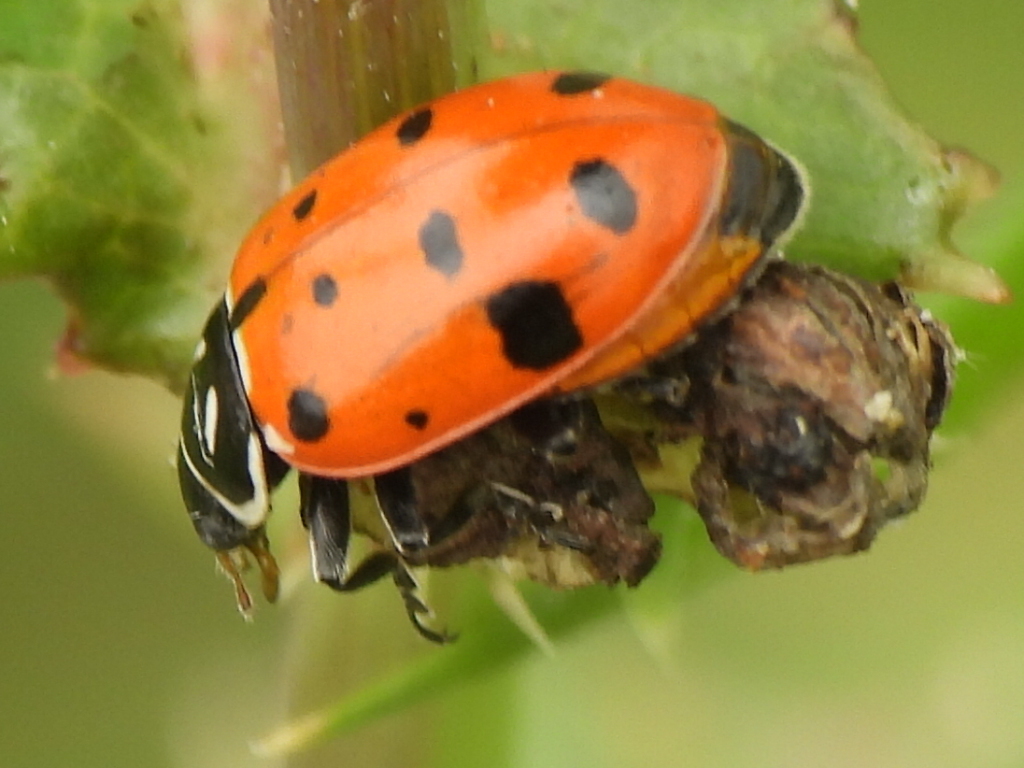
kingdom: Animalia
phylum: Arthropoda
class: Insecta
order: Coleoptera
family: Coccinellidae
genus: Hippodamia
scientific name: Hippodamia convergens
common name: Convergent lady beetle
